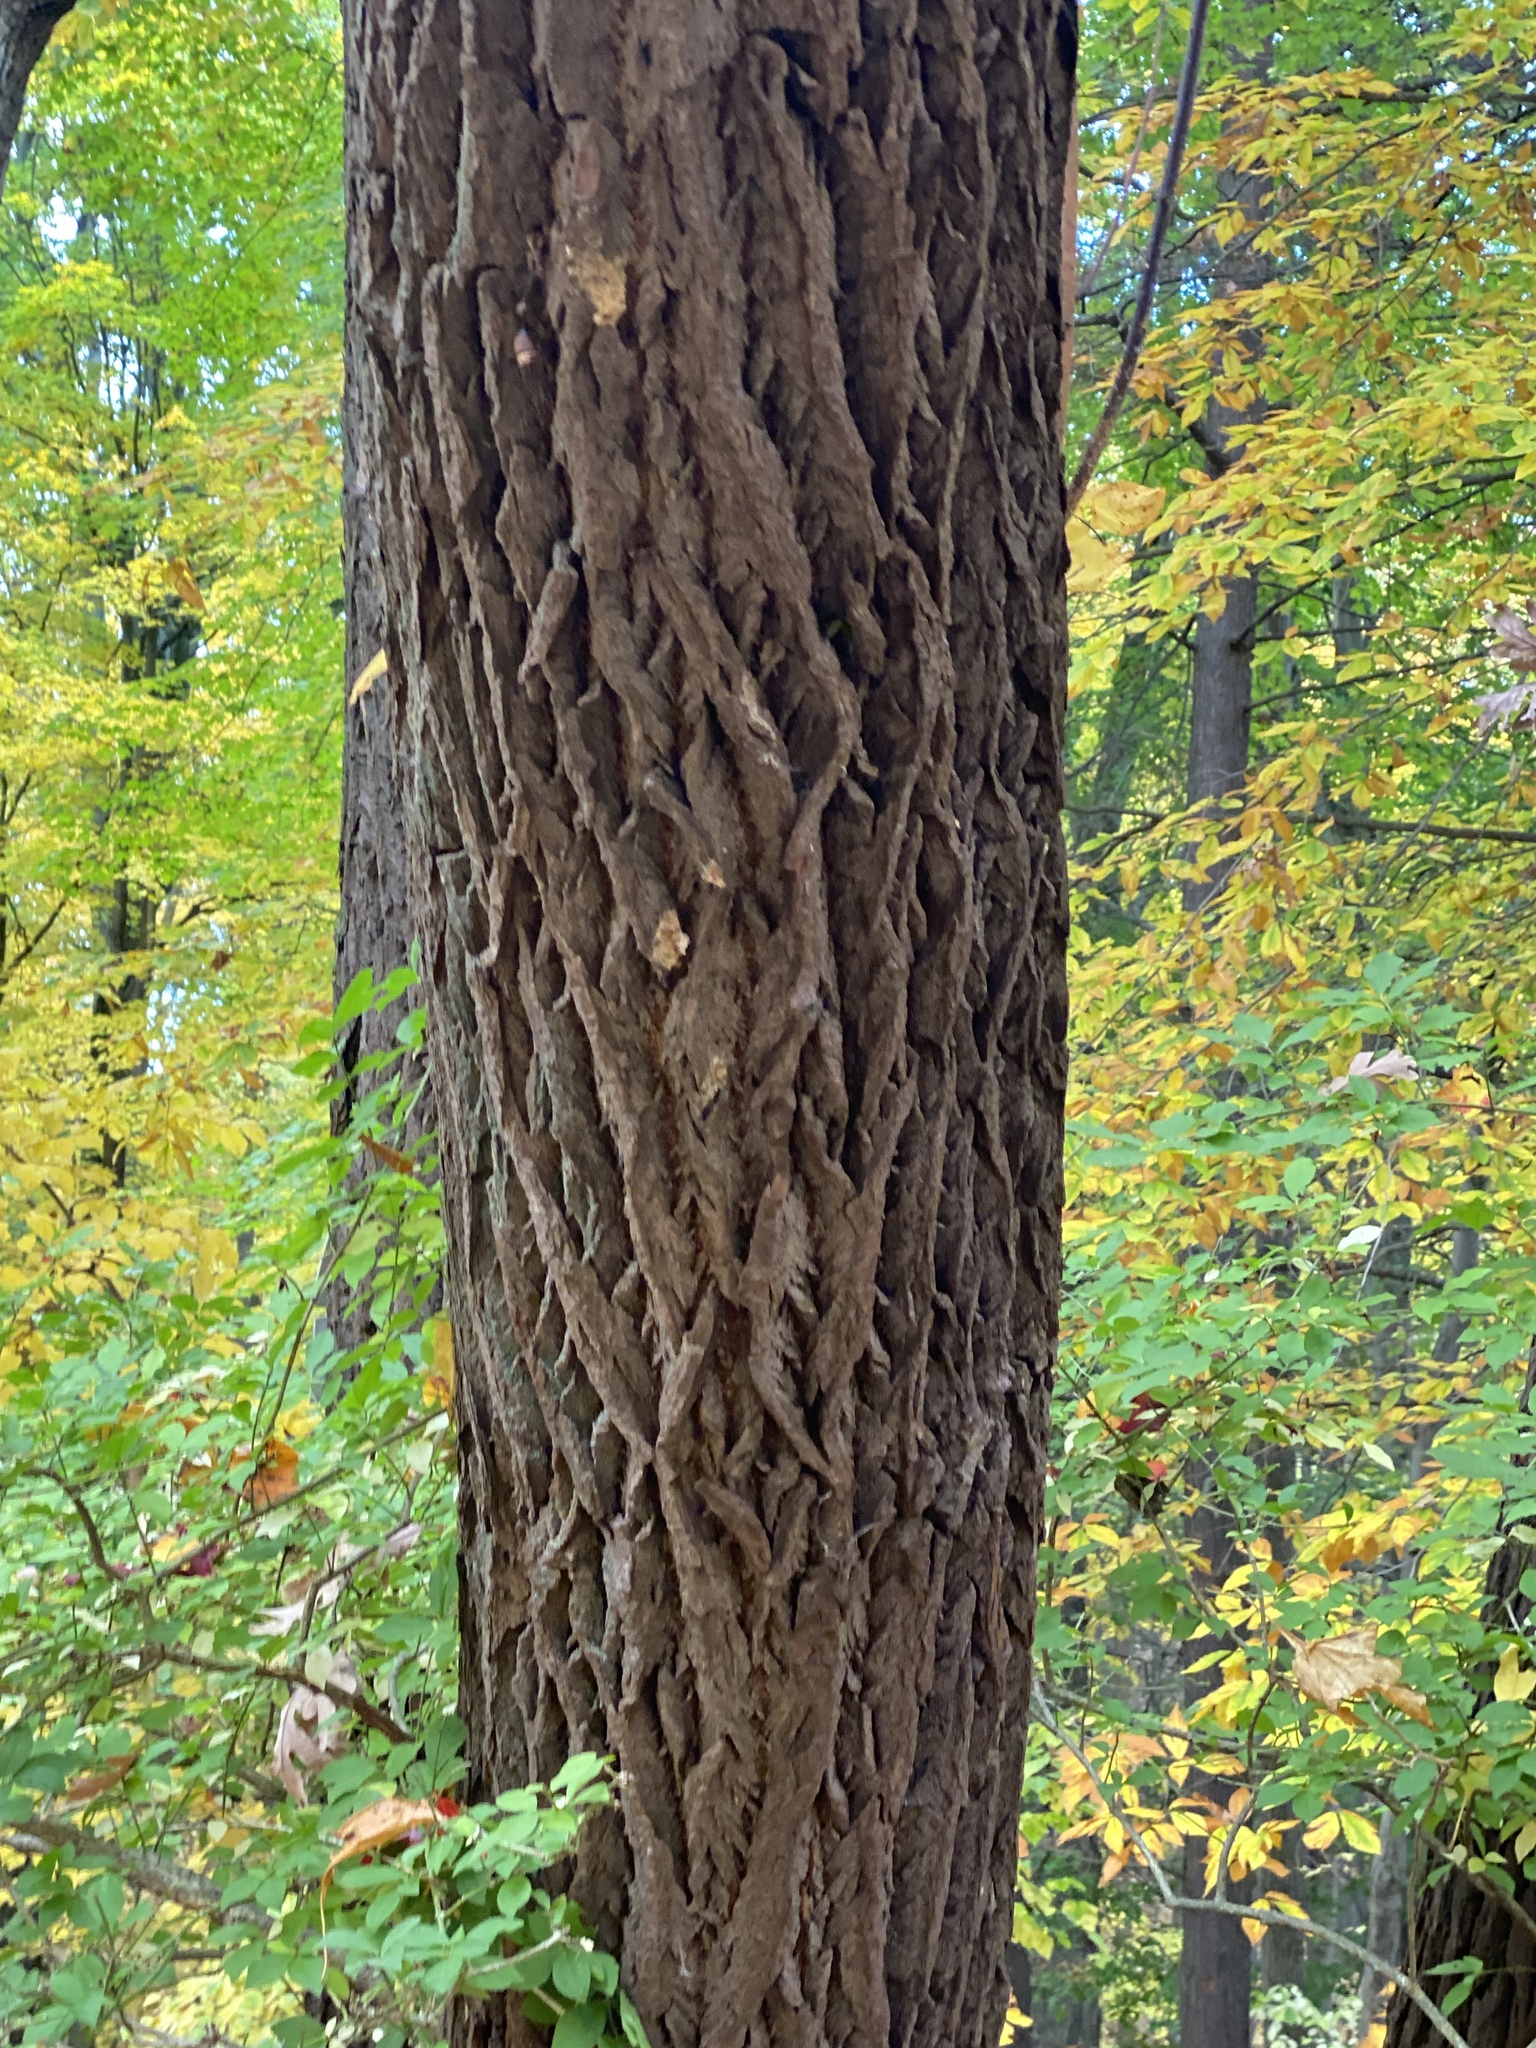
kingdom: Plantae
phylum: Tracheophyta
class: Magnoliopsida
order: Laurales
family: Lauraceae
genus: Sassafras
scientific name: Sassafras albidum
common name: Sassafras
